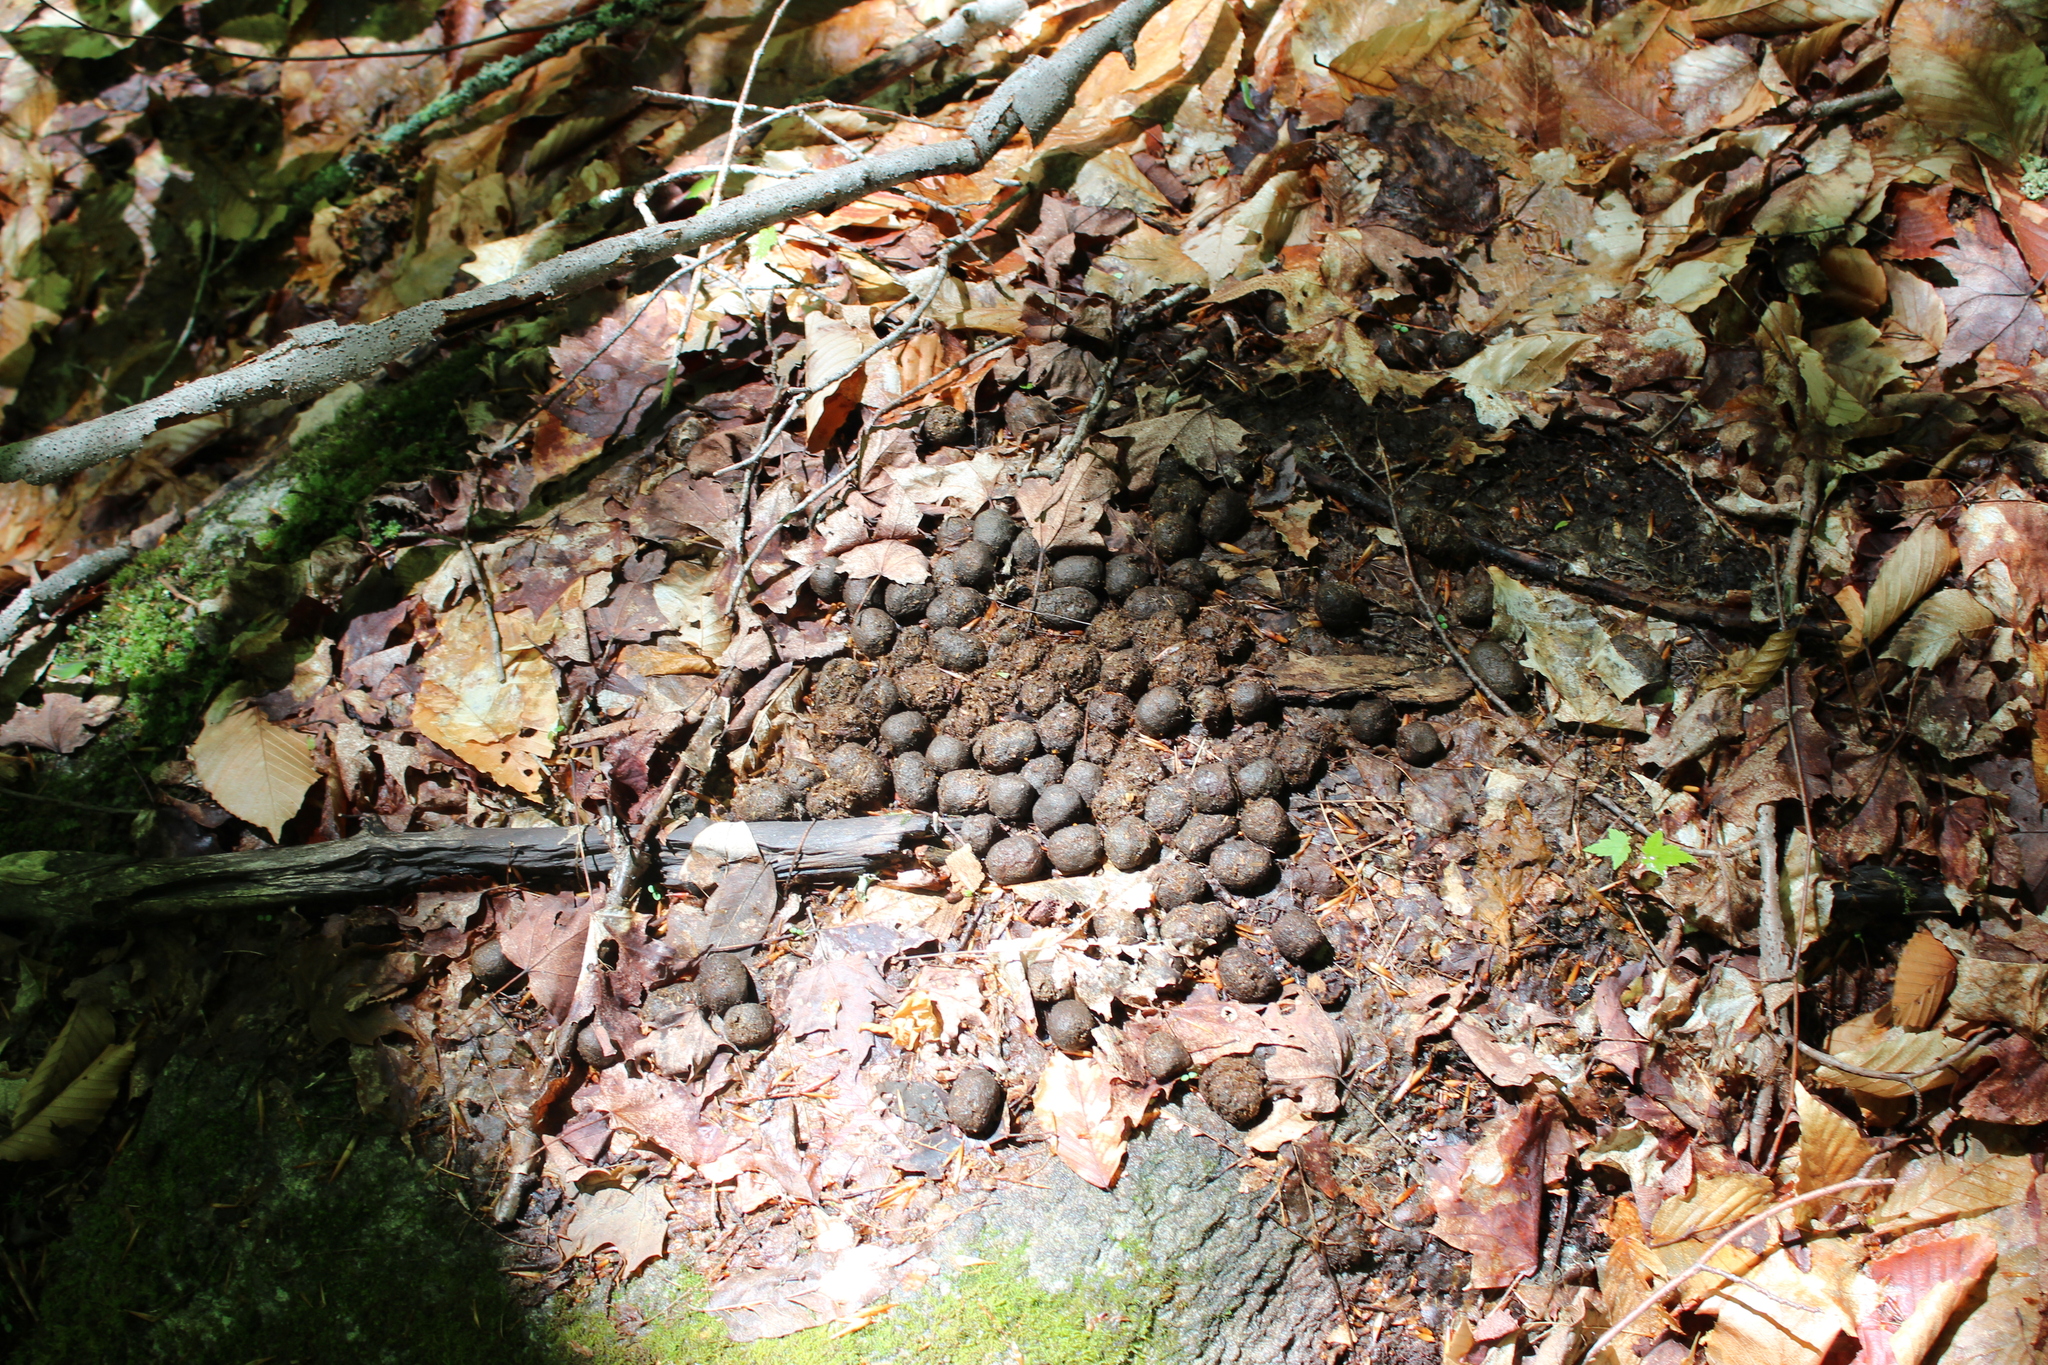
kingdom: Animalia
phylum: Chordata
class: Mammalia
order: Artiodactyla
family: Cervidae
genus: Alces
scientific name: Alces alces
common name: Moose
